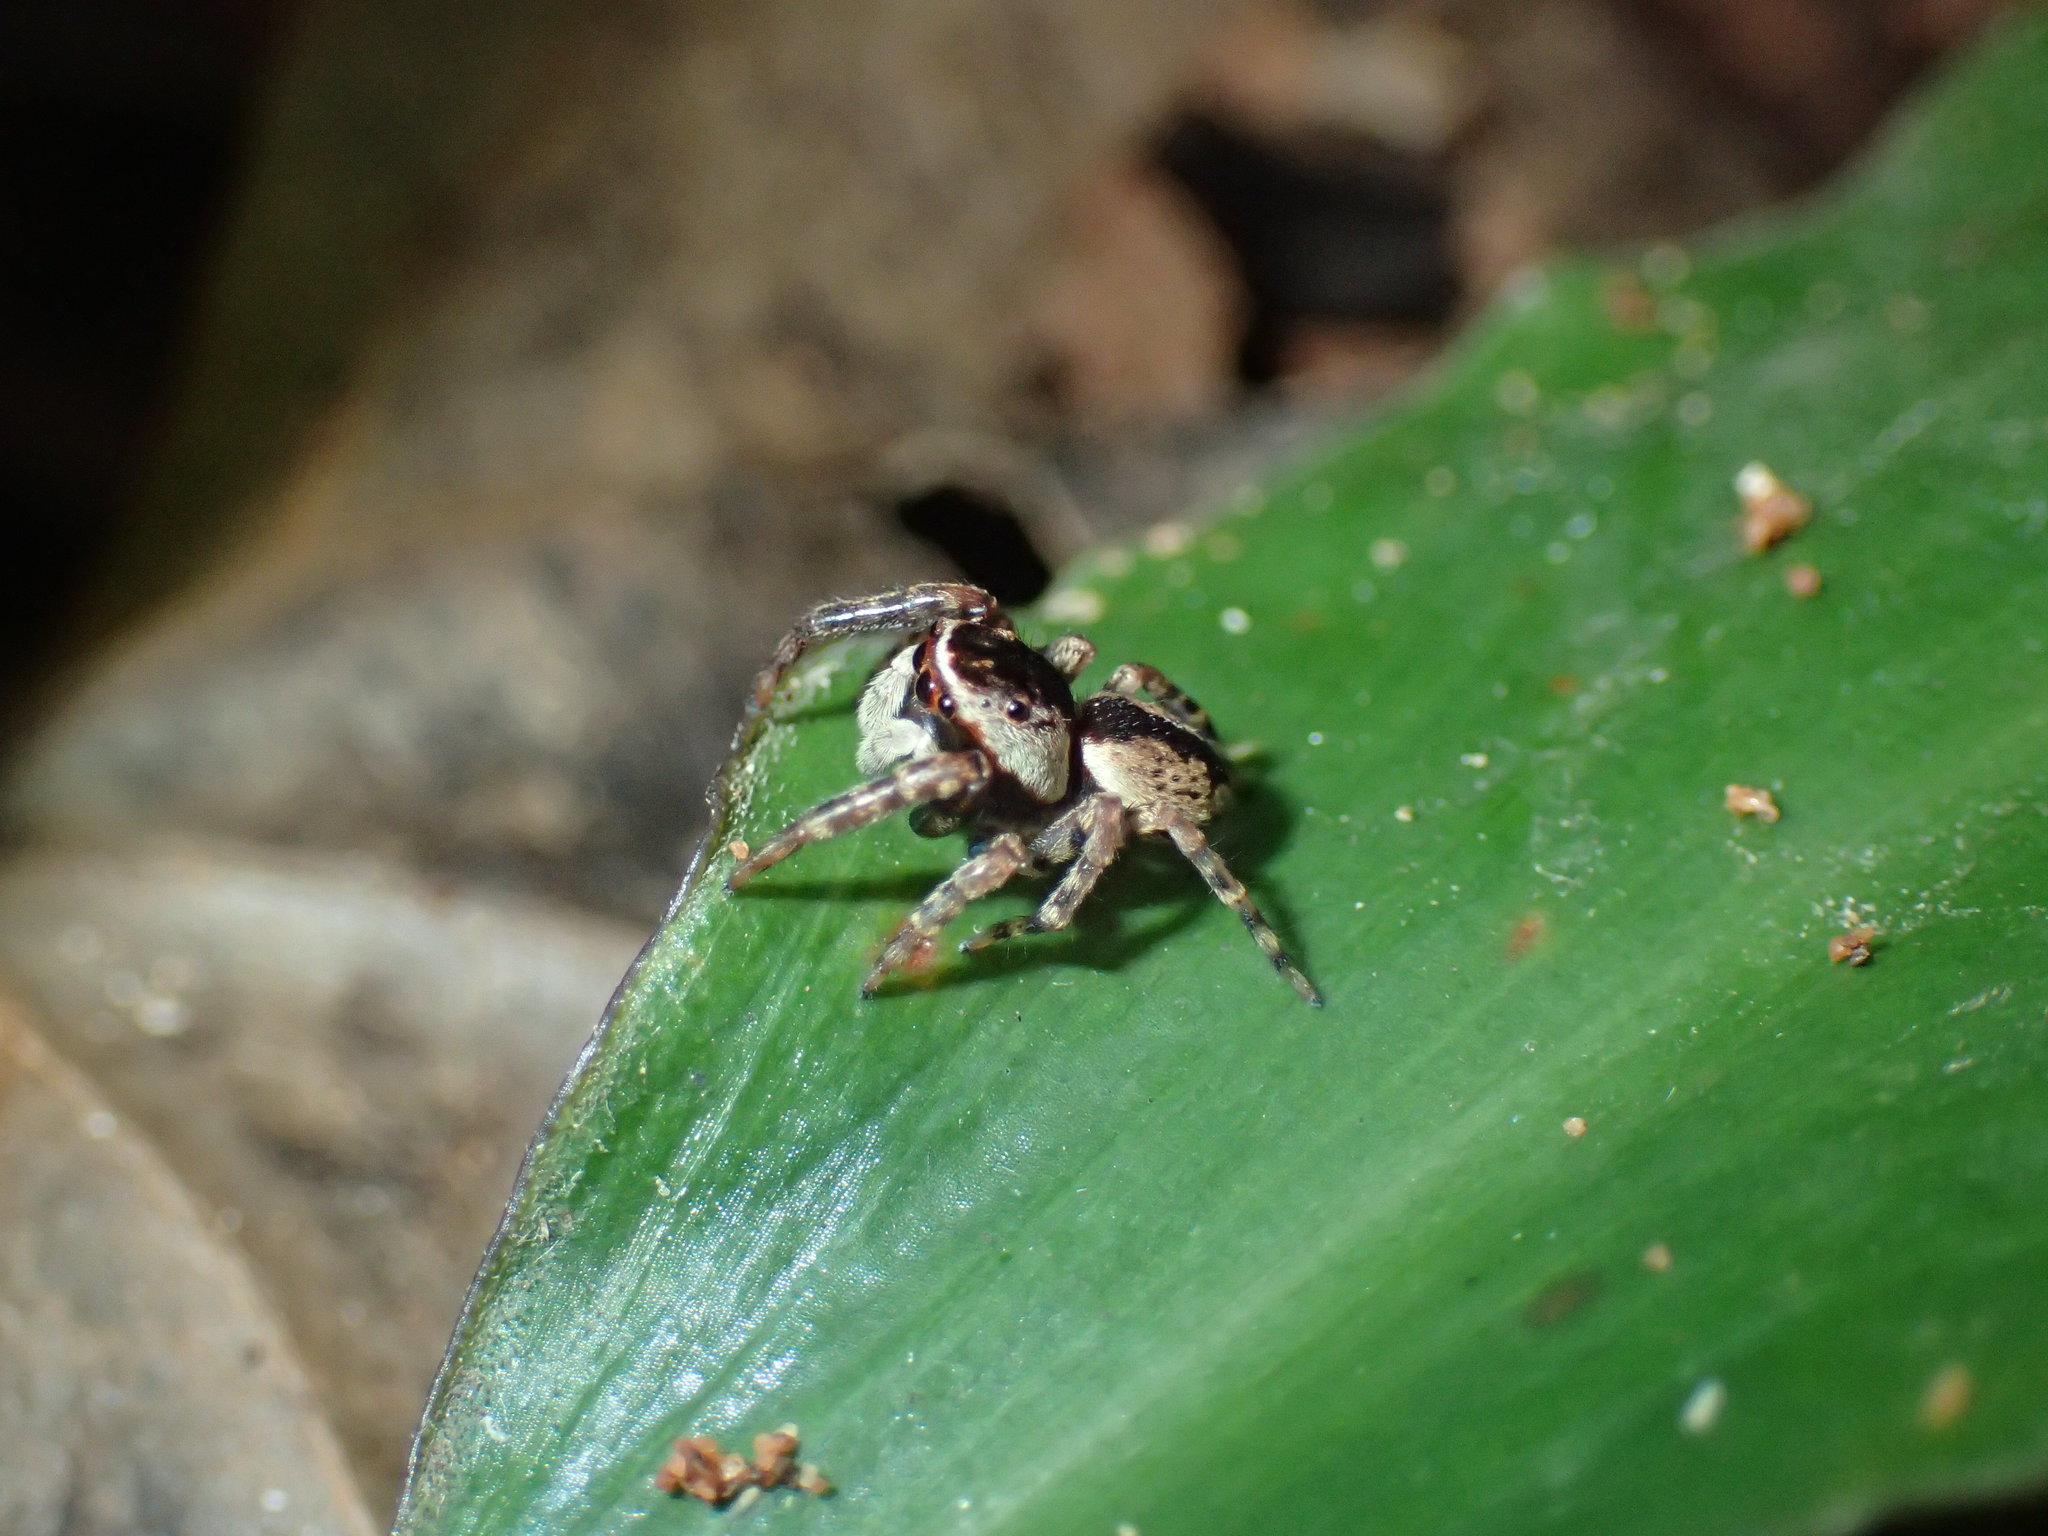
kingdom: Animalia
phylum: Arthropoda
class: Arachnida
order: Araneae
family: Salticidae
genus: Thyenula
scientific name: Thyenula leighi
